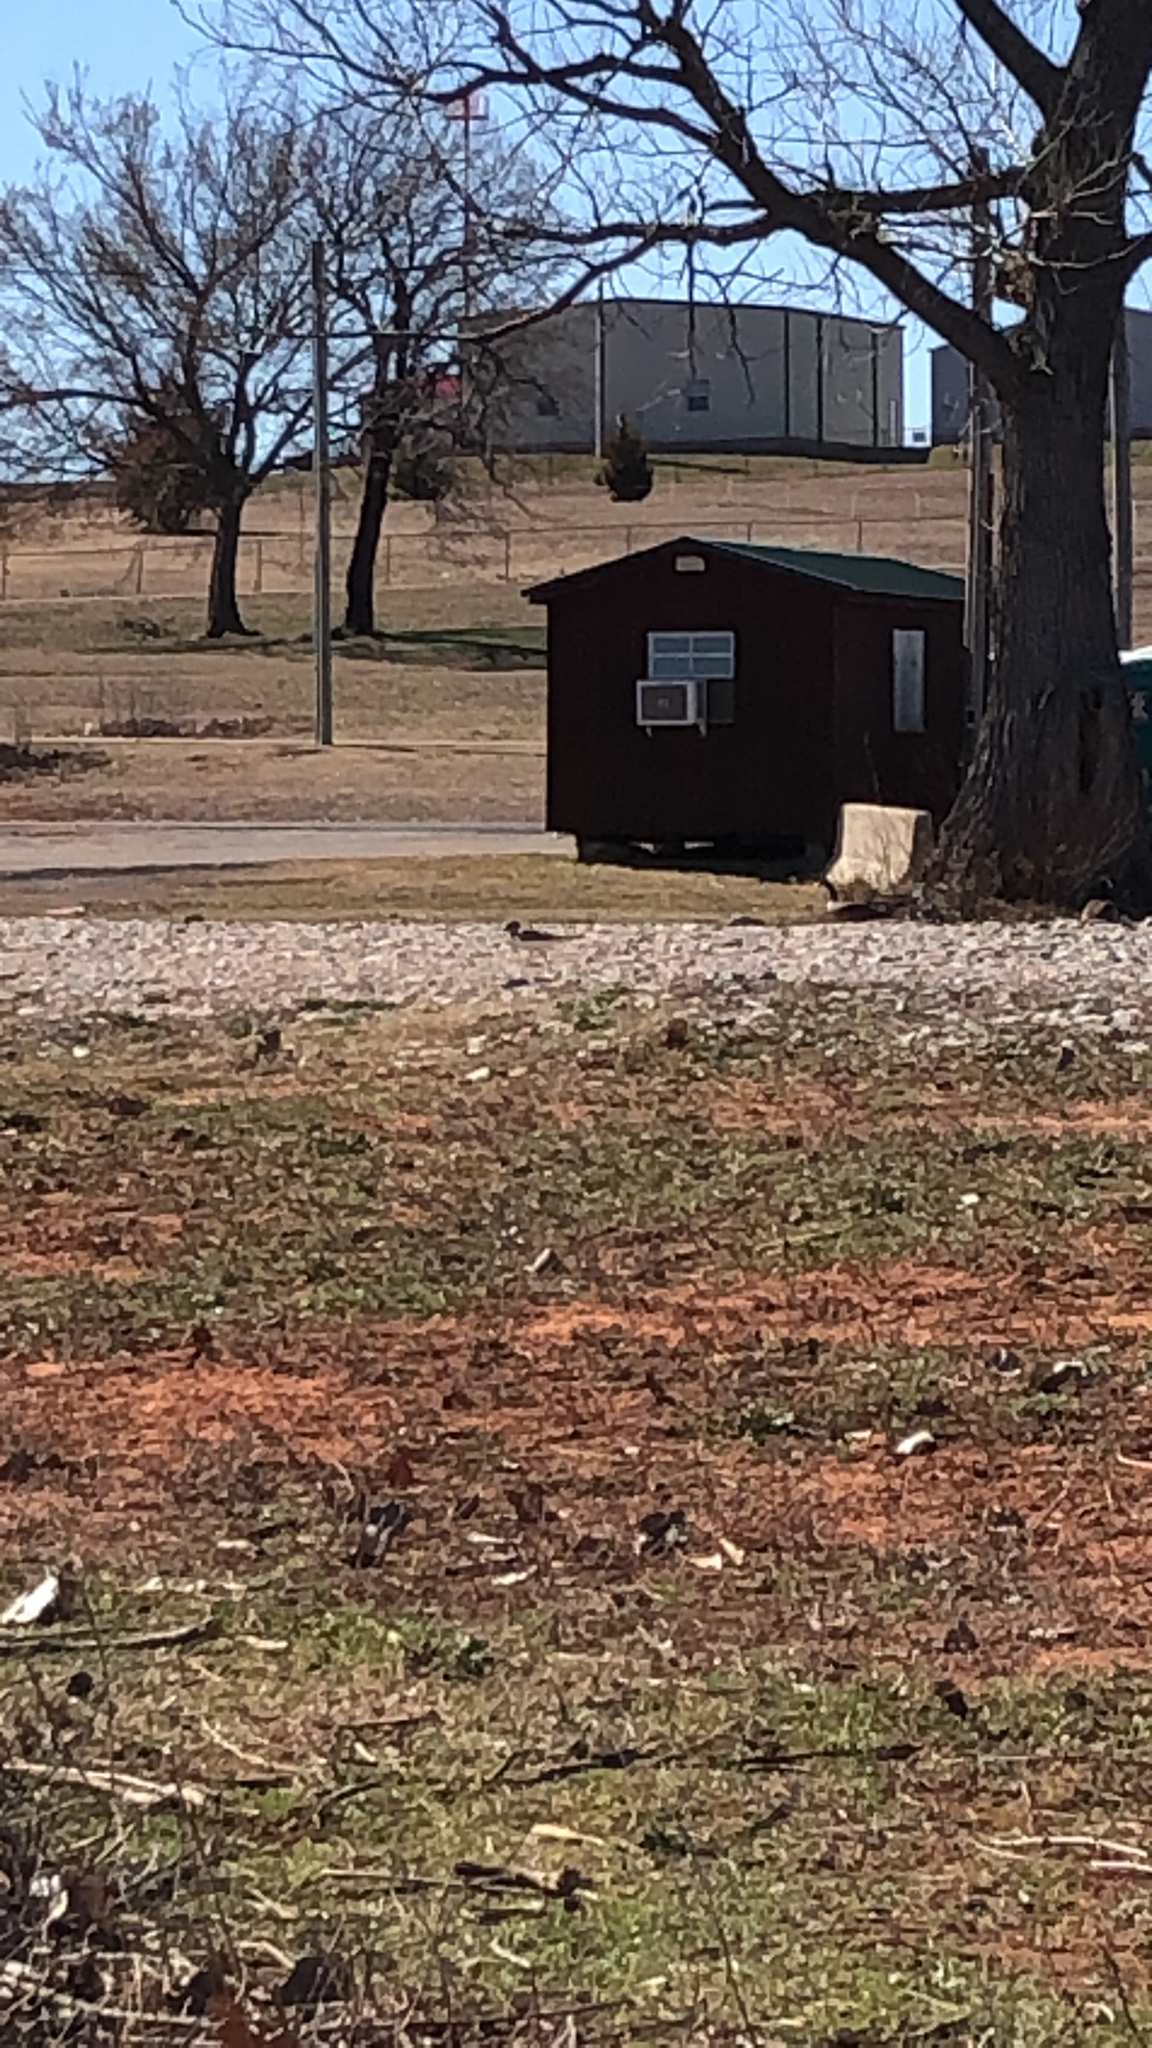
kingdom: Animalia
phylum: Chordata
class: Aves
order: Charadriiformes
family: Charadriidae
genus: Charadrius
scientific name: Charadrius vociferus
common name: Killdeer
